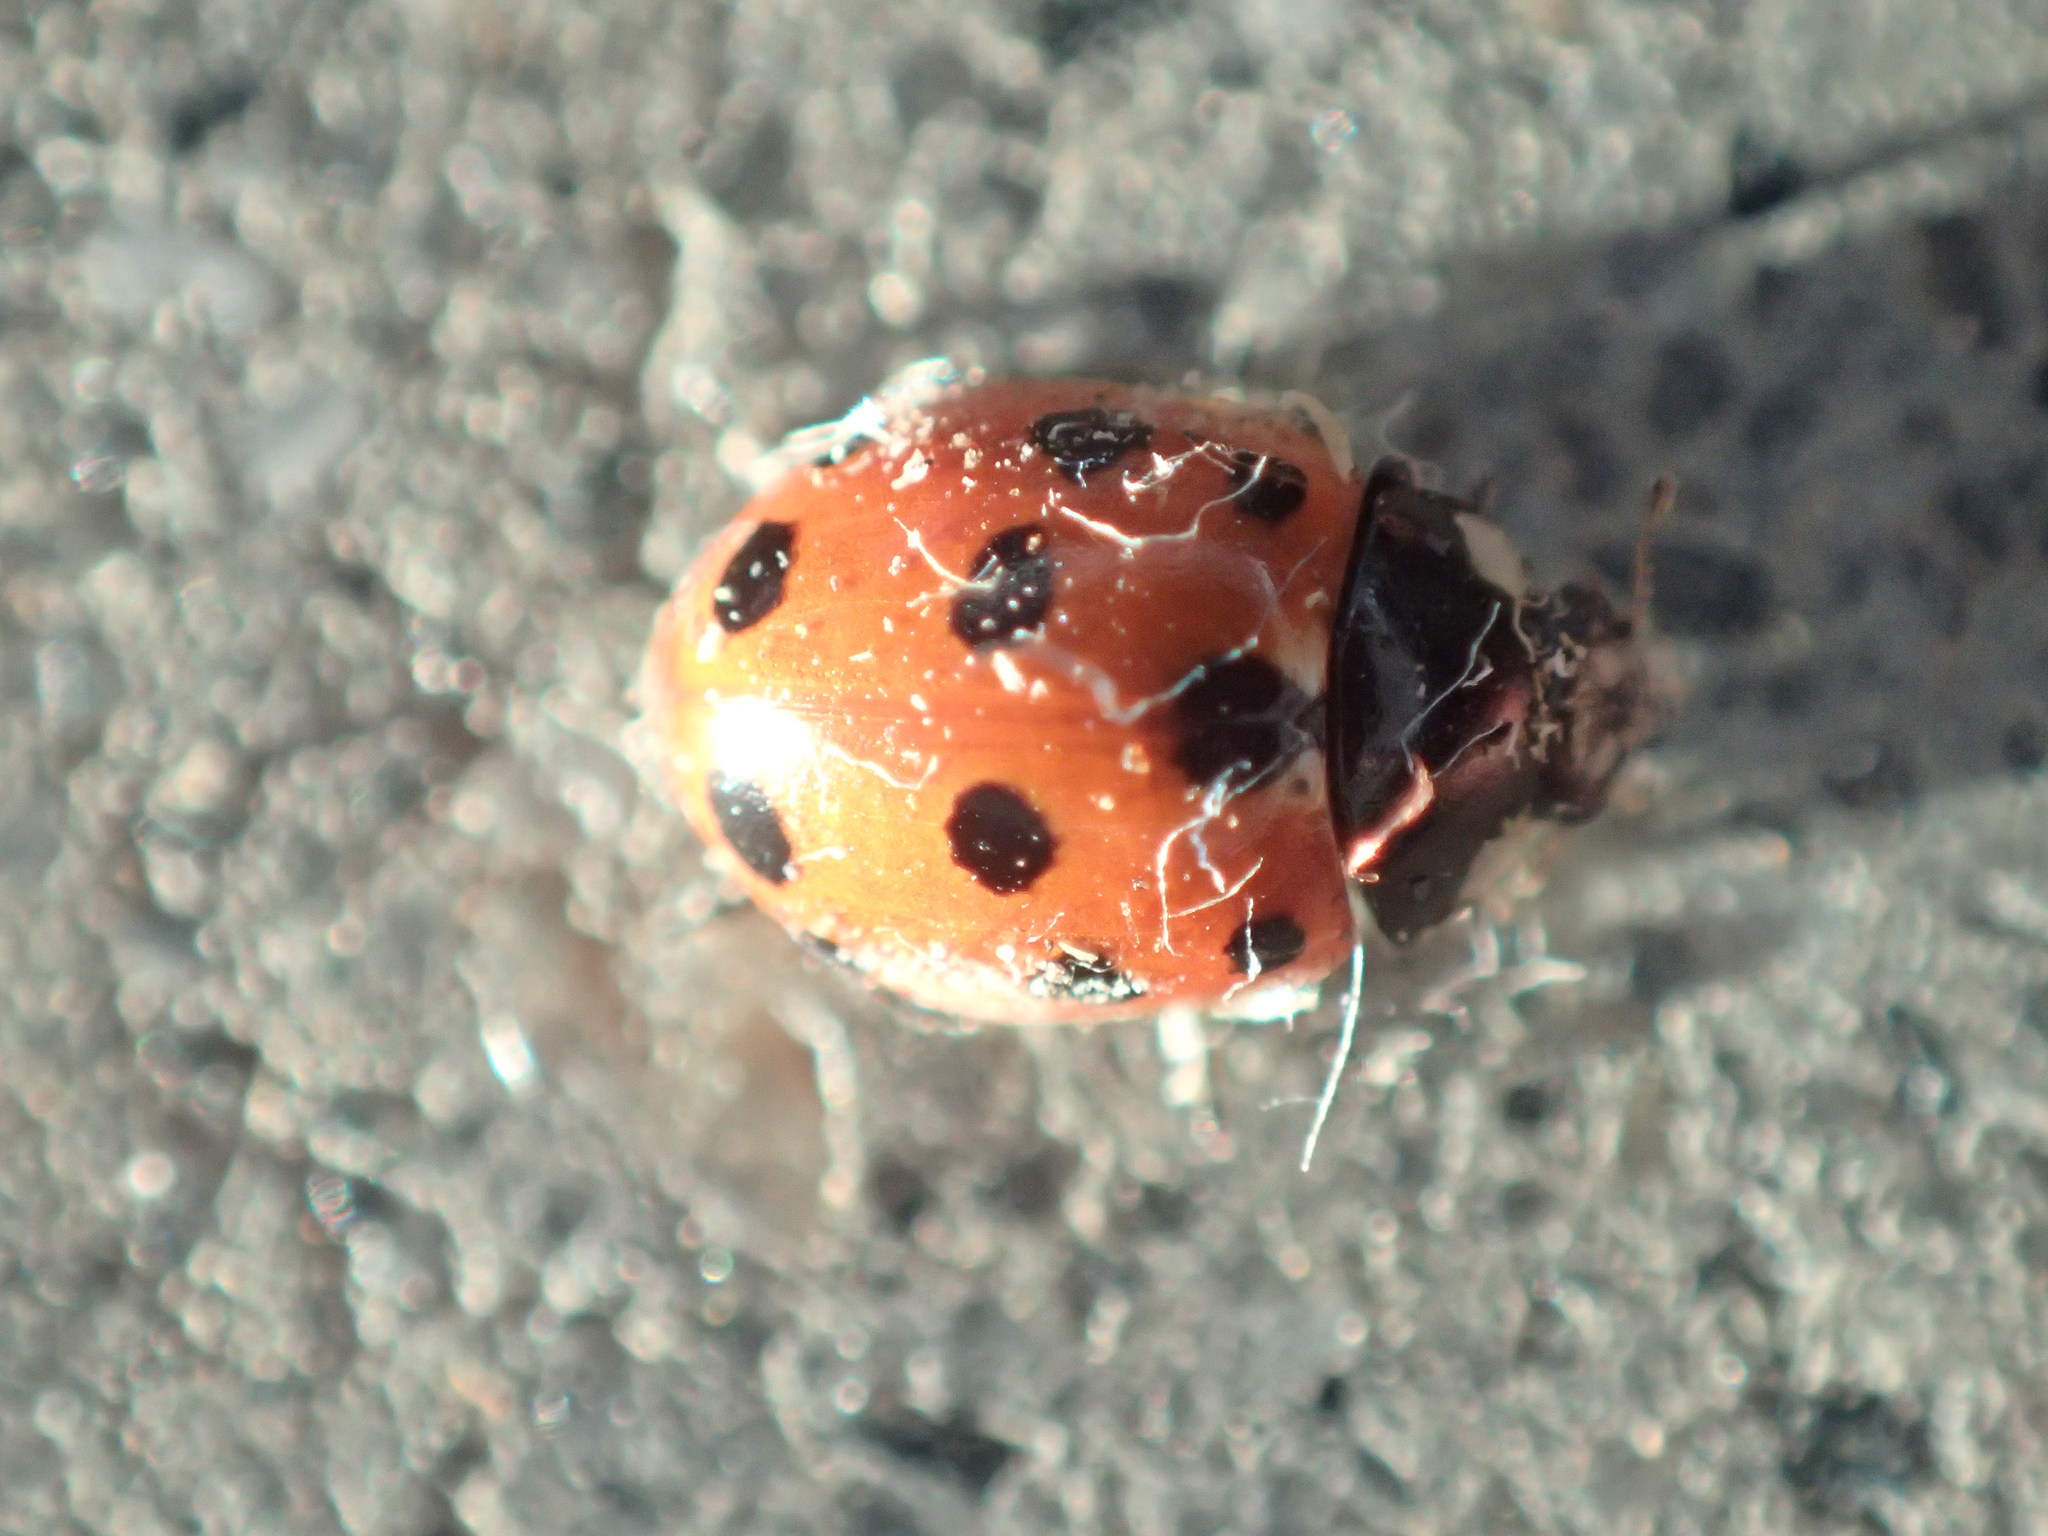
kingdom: Animalia
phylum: Arthropoda
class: Insecta
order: Coleoptera
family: Coccinellidae
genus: Coccinella
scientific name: Coccinella undecimpunctata
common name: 11-spot ladybird
